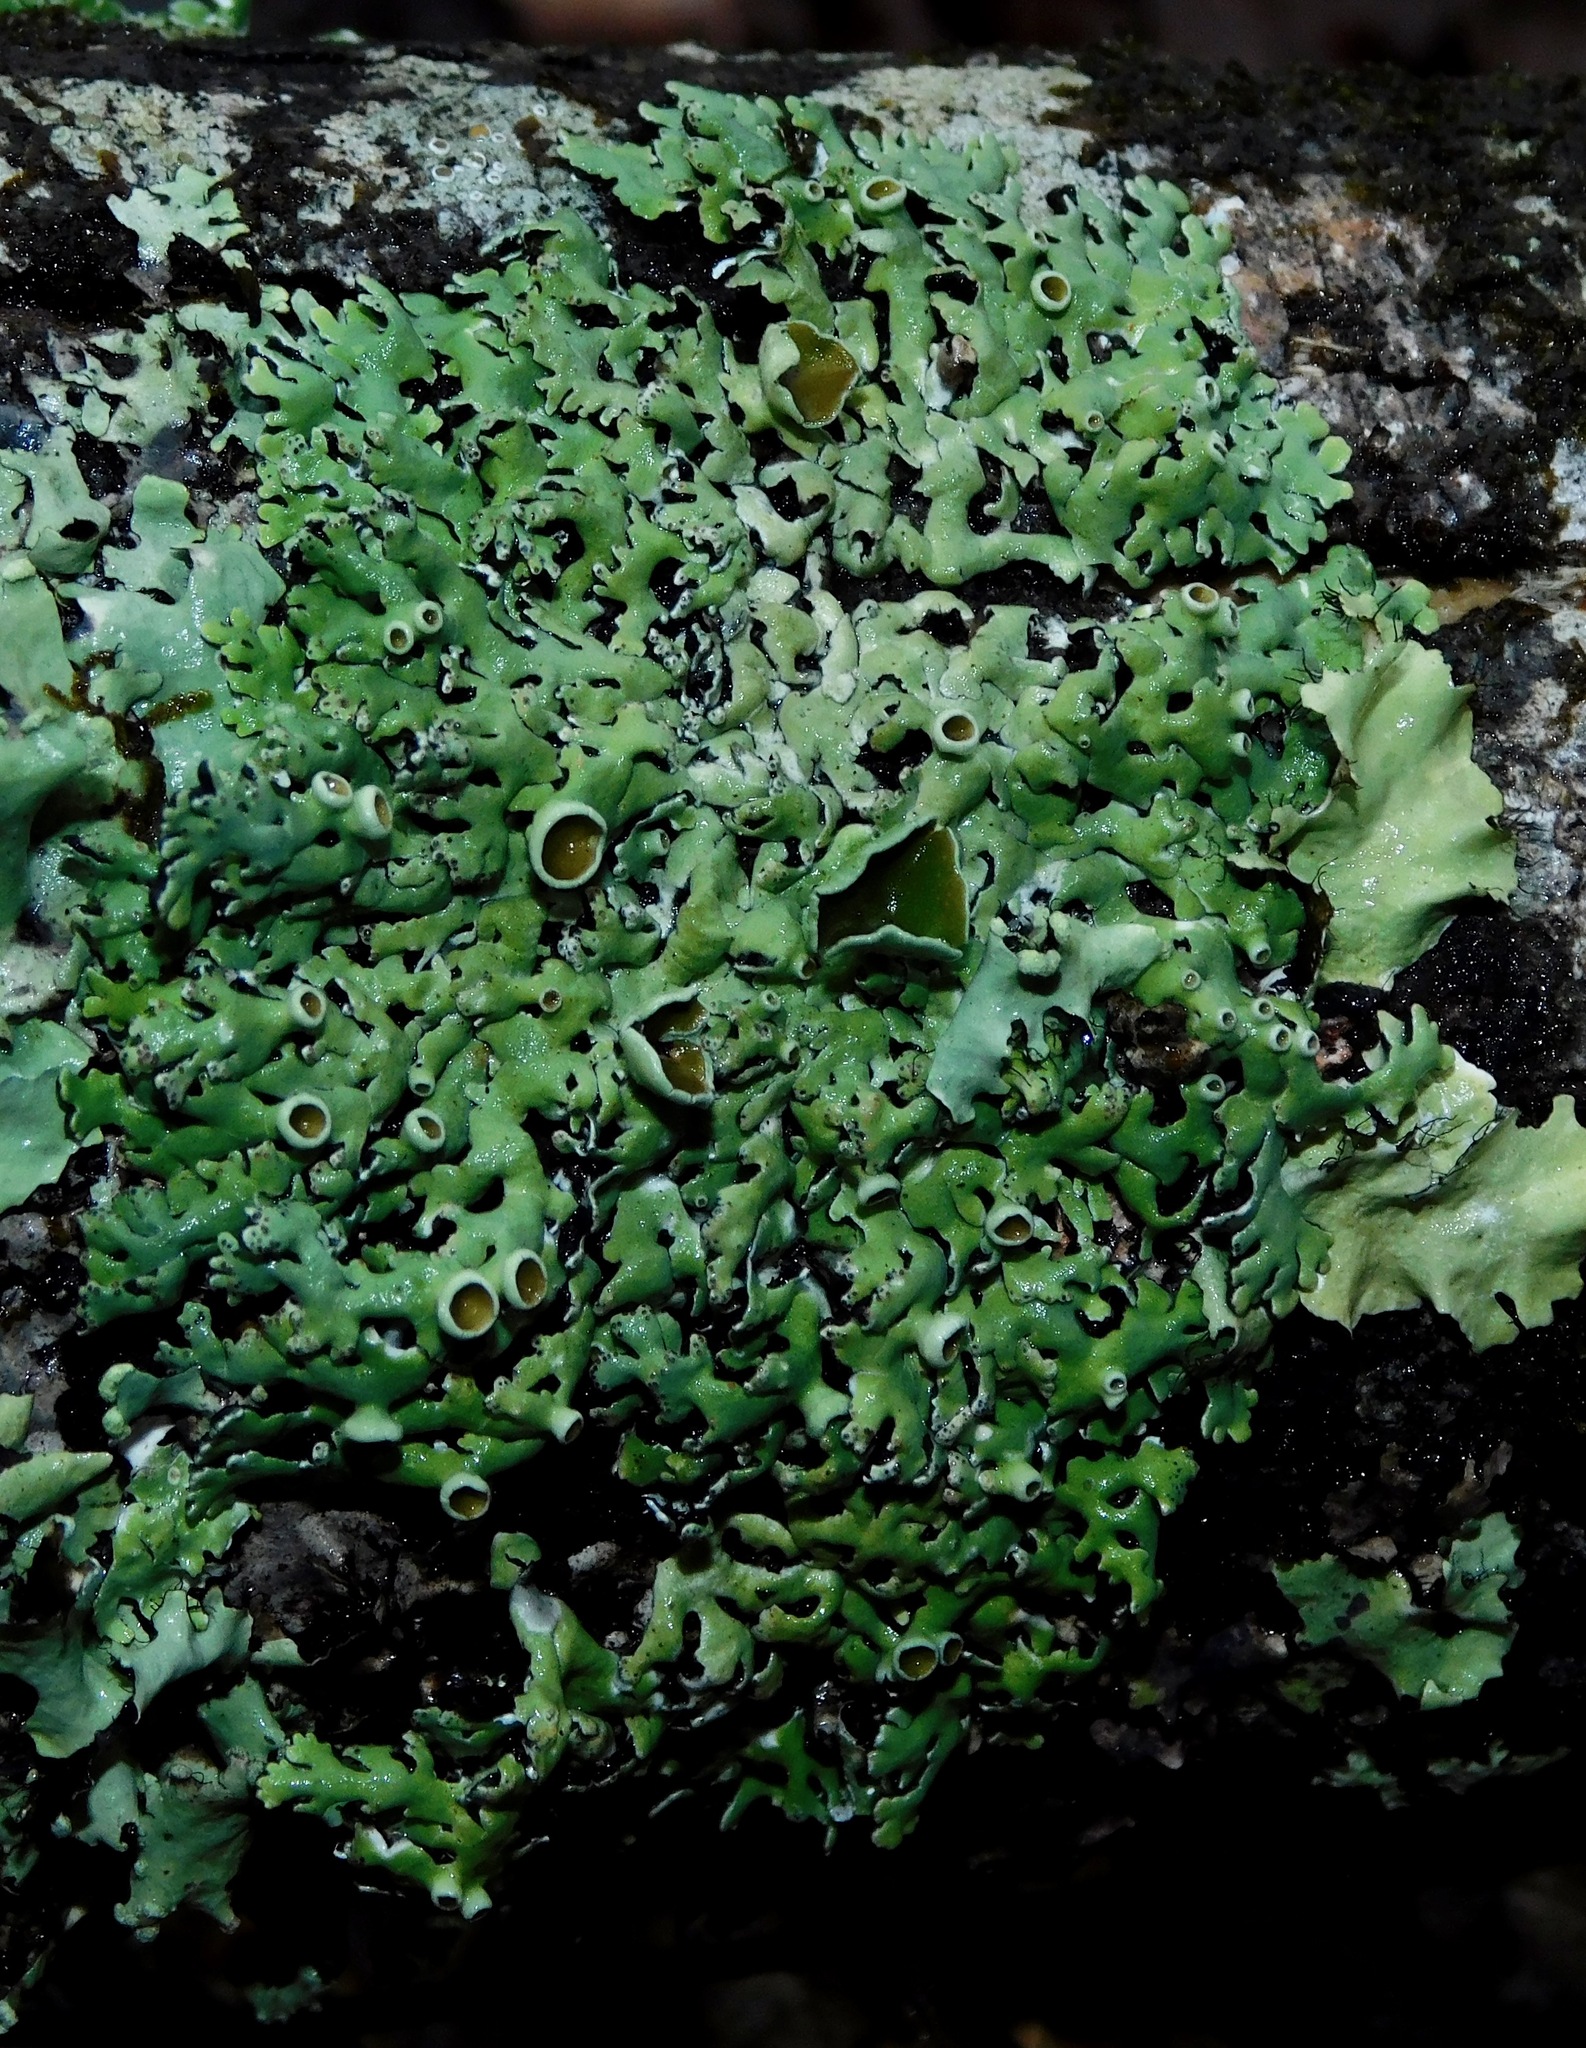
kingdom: Fungi
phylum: Ascomycota
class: Lecanoromycetes
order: Lecanorales
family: Parmeliaceae
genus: Anzia
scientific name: Anzia colpodes
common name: Black-foam lichen
